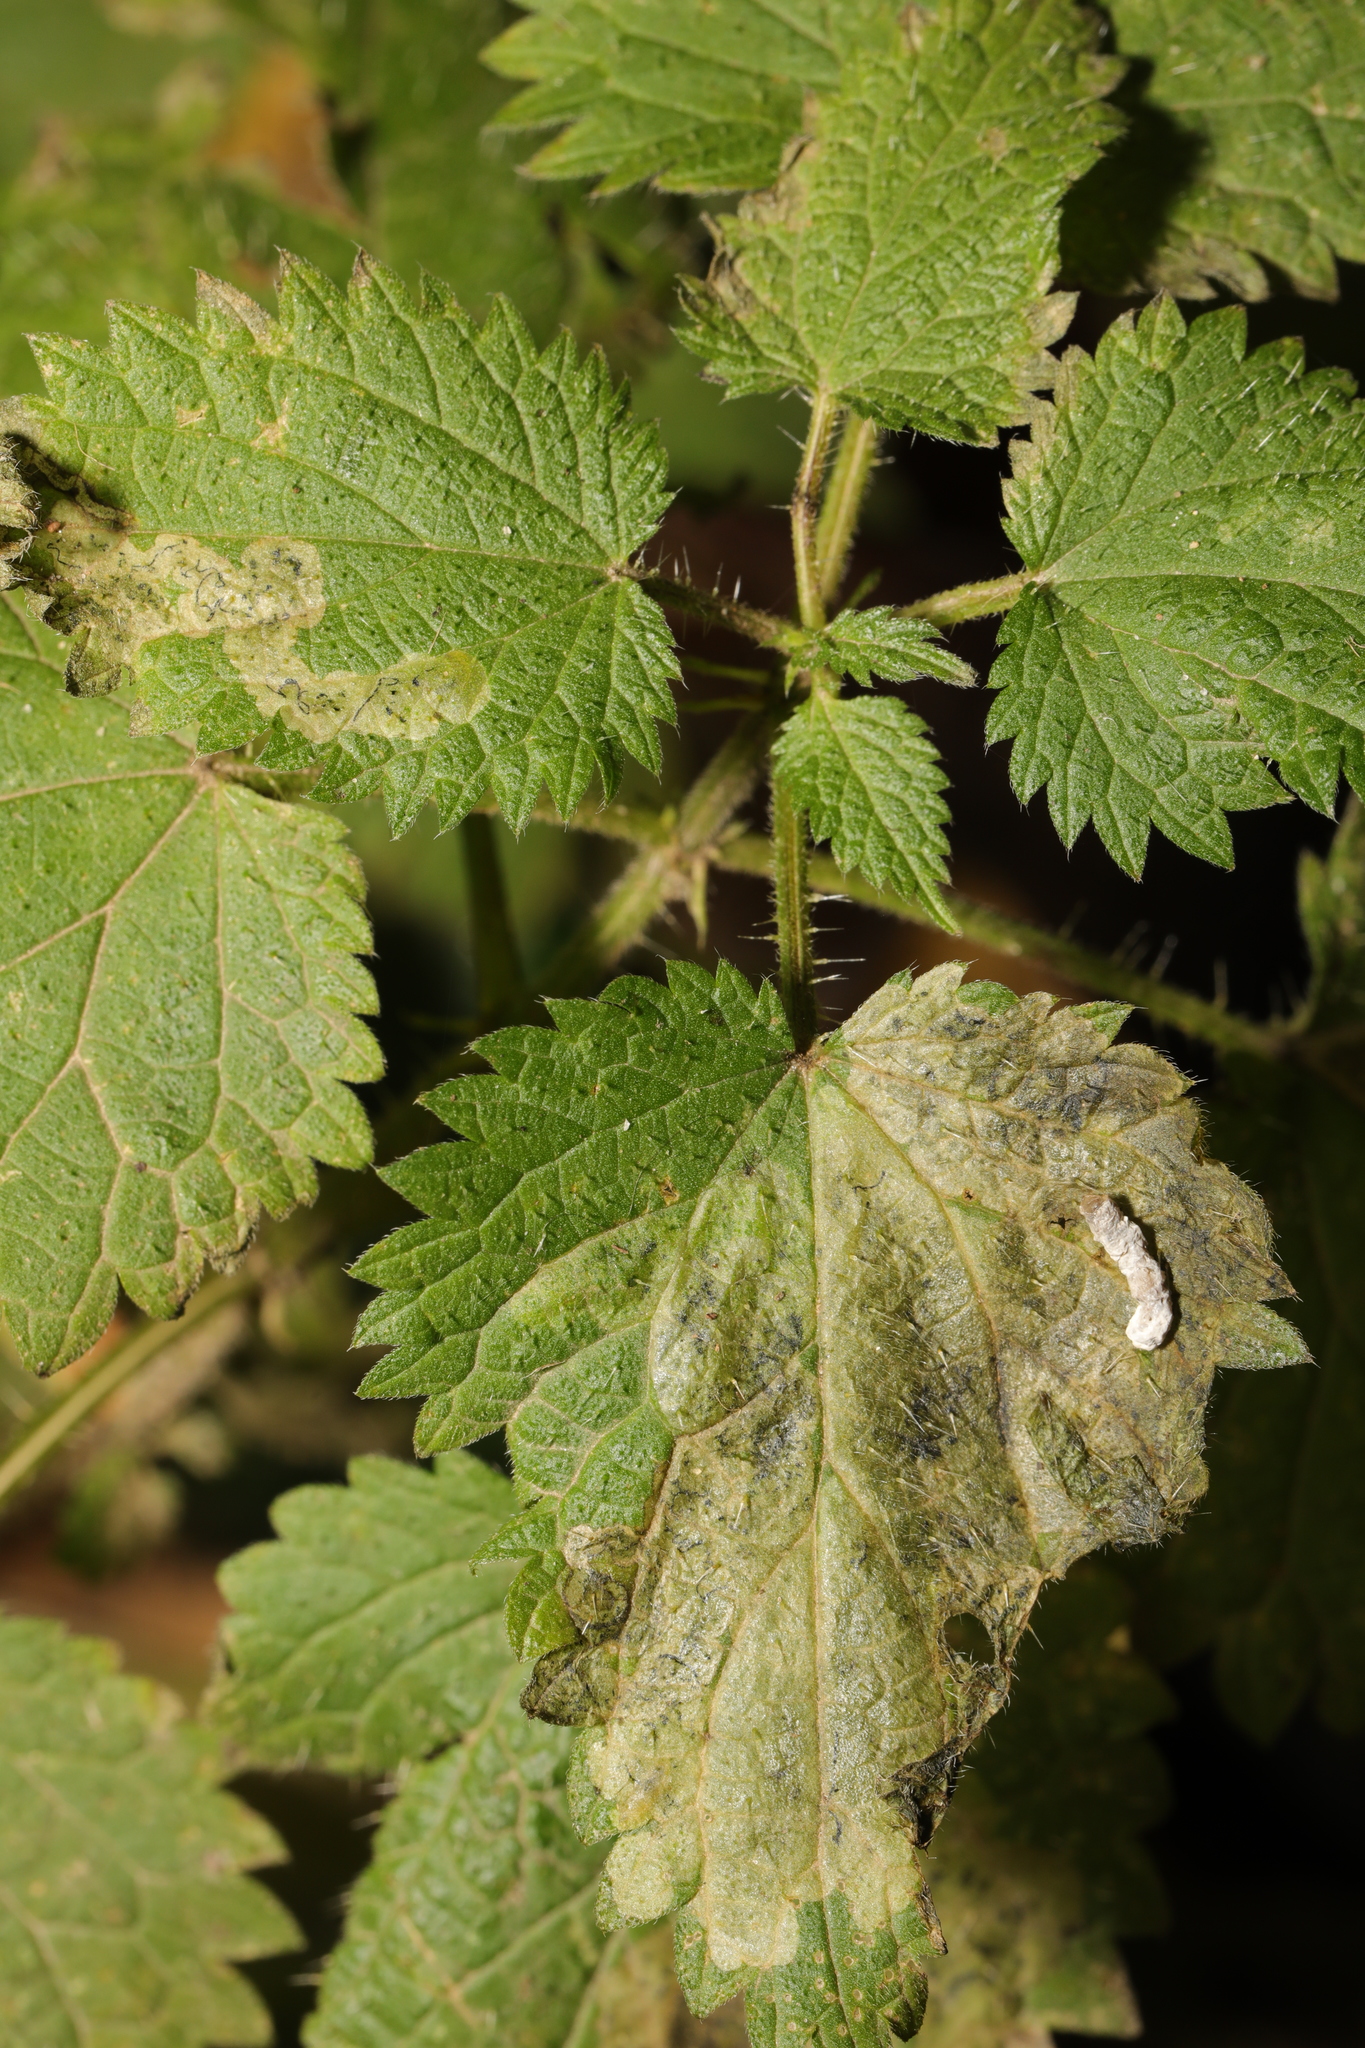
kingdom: Animalia
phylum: Arthropoda
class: Insecta
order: Diptera
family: Agromyzidae
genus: Agromyza
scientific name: Agromyza anthracina
